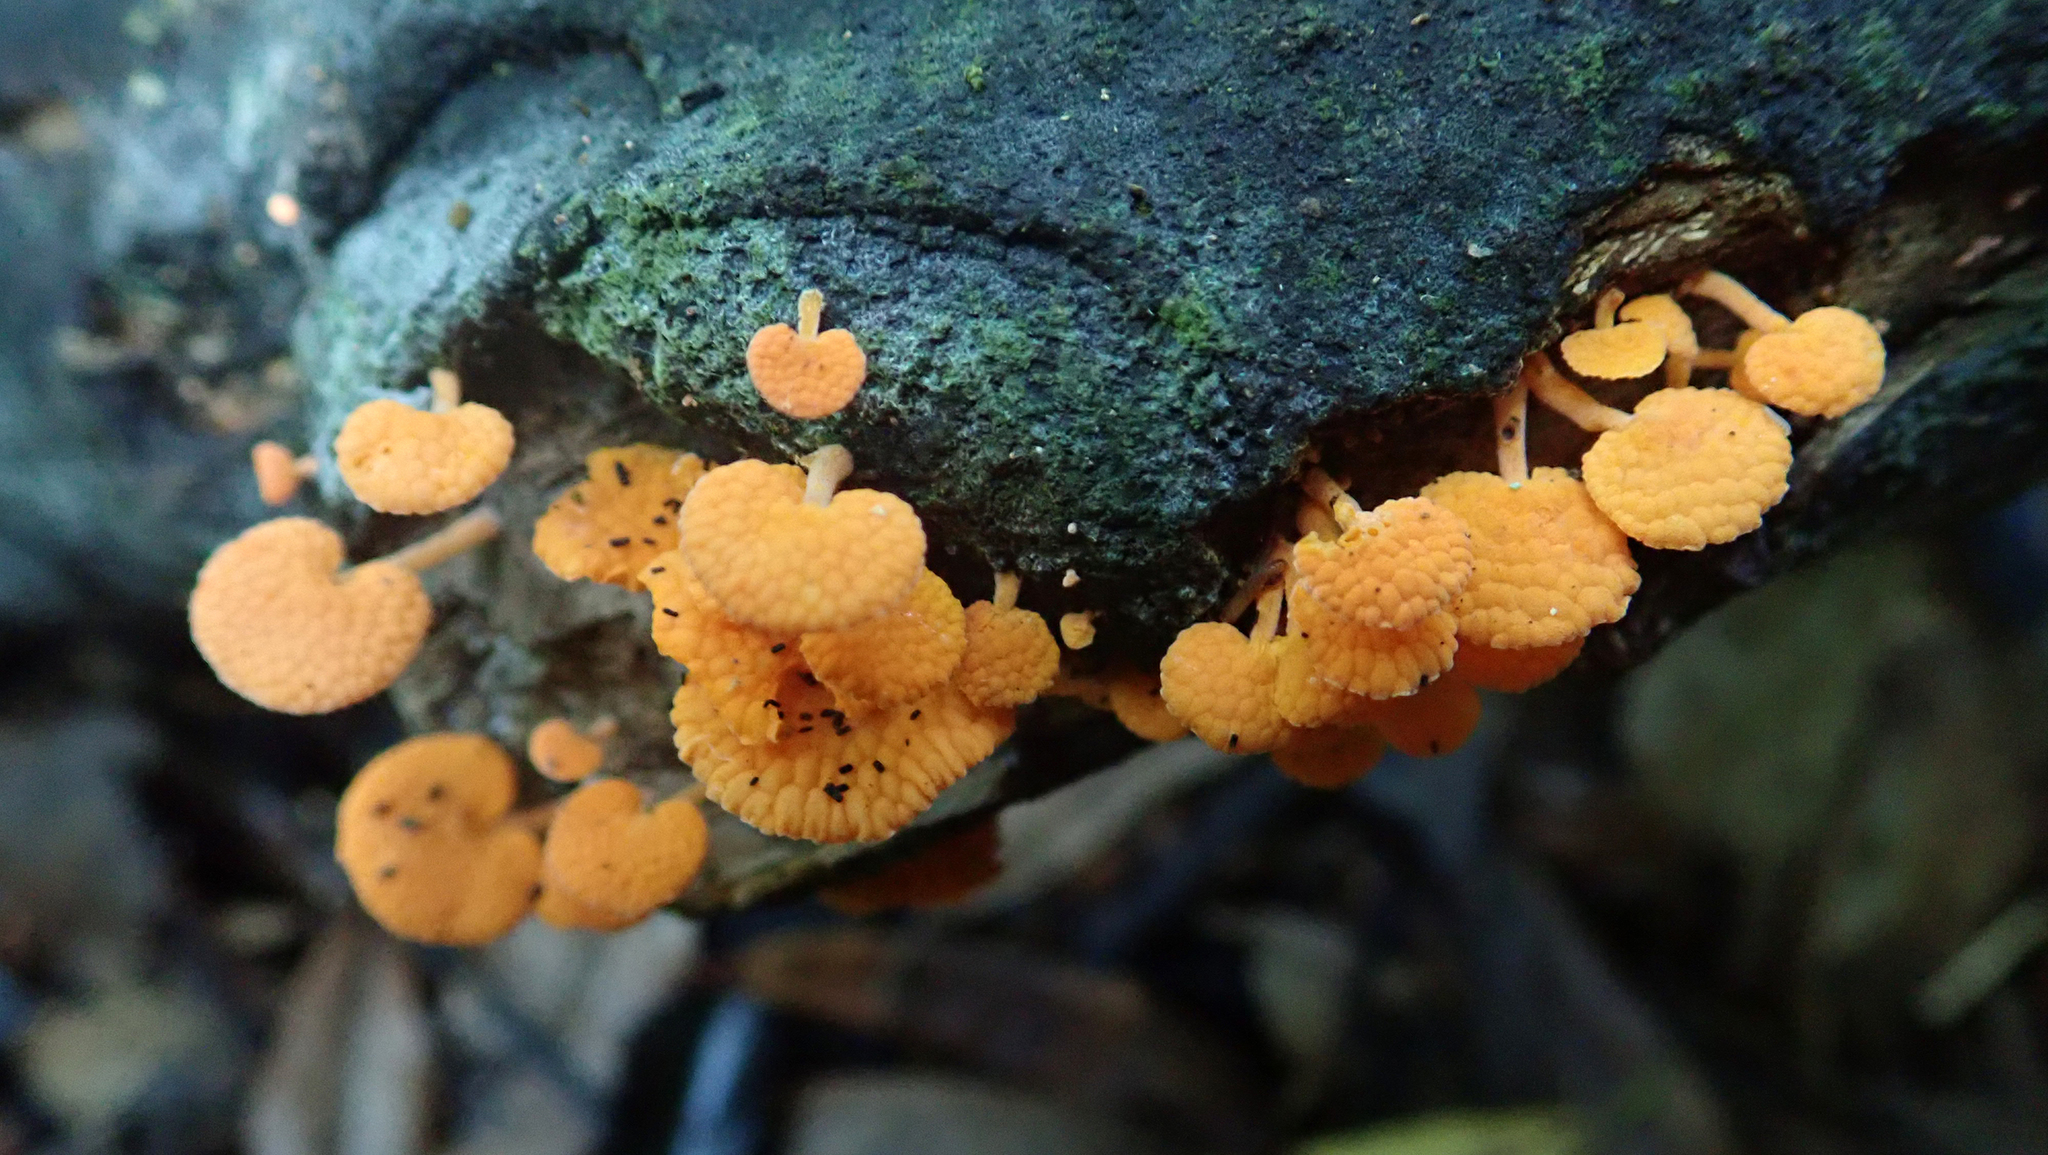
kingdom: Fungi
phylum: Basidiomycota
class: Agaricomycetes
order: Agaricales
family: Mycenaceae
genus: Favolaschia
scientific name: Favolaschia claudopus
